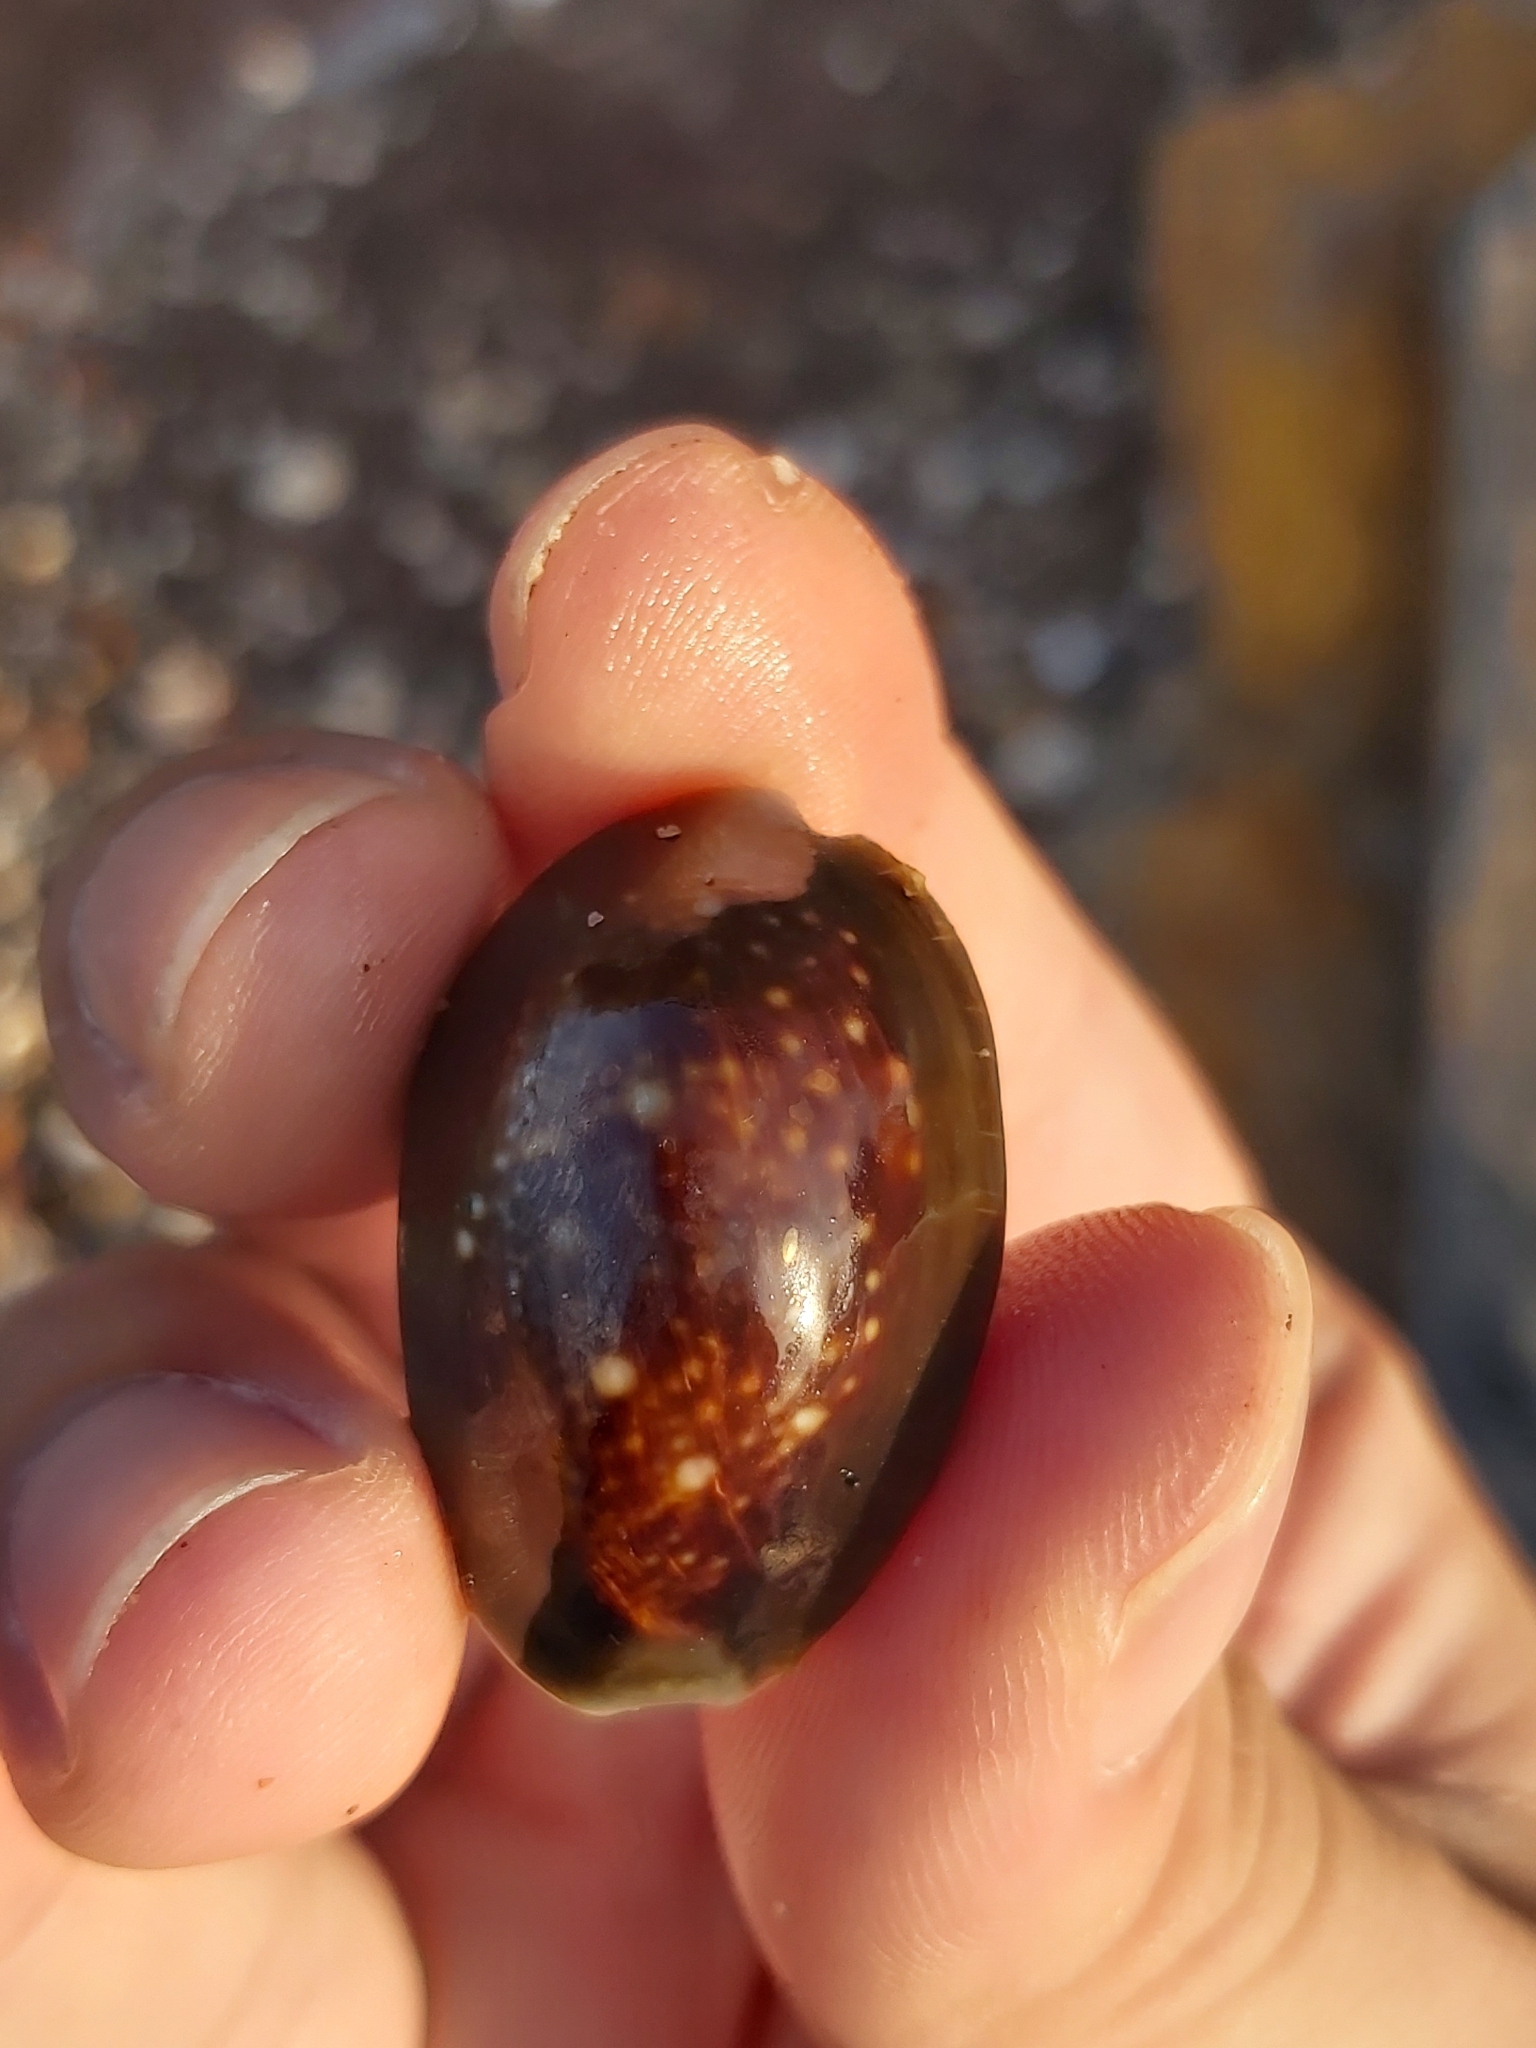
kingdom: Animalia
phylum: Mollusca
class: Gastropoda
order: Littorinimorpha
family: Cypraeidae
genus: Monetaria
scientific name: Monetaria caputserpentis
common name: Serpent's head cowrie
